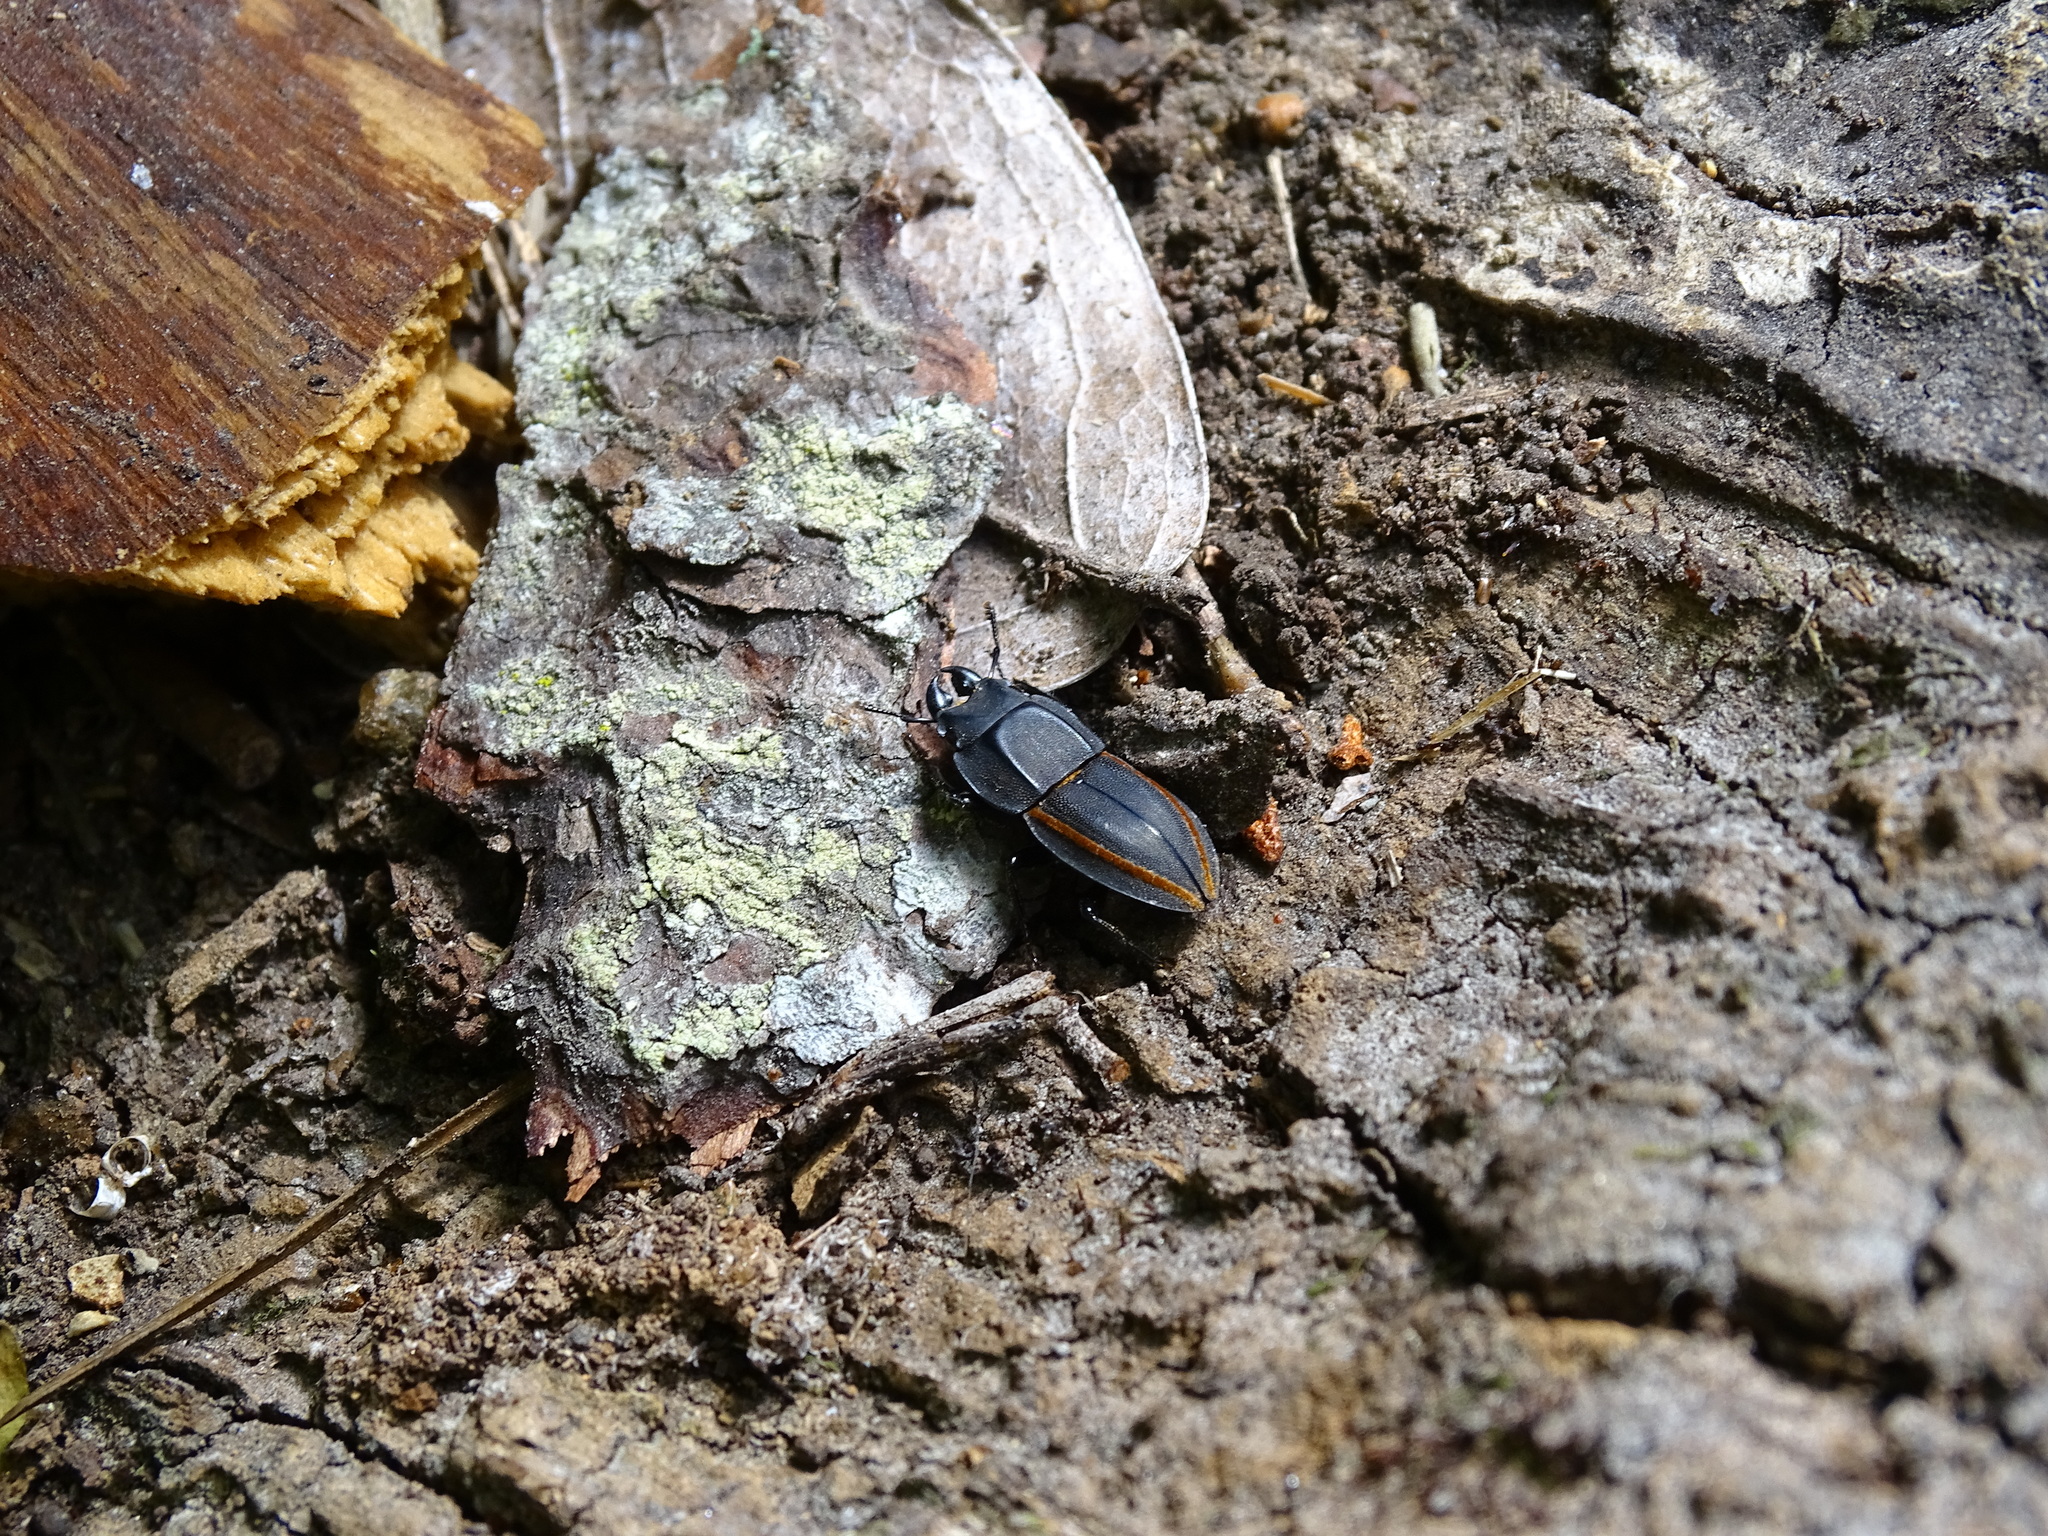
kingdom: Animalia
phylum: Arthropoda
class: Insecta
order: Coleoptera
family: Lucanidae
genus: Erichius
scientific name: Erichius vittatus
